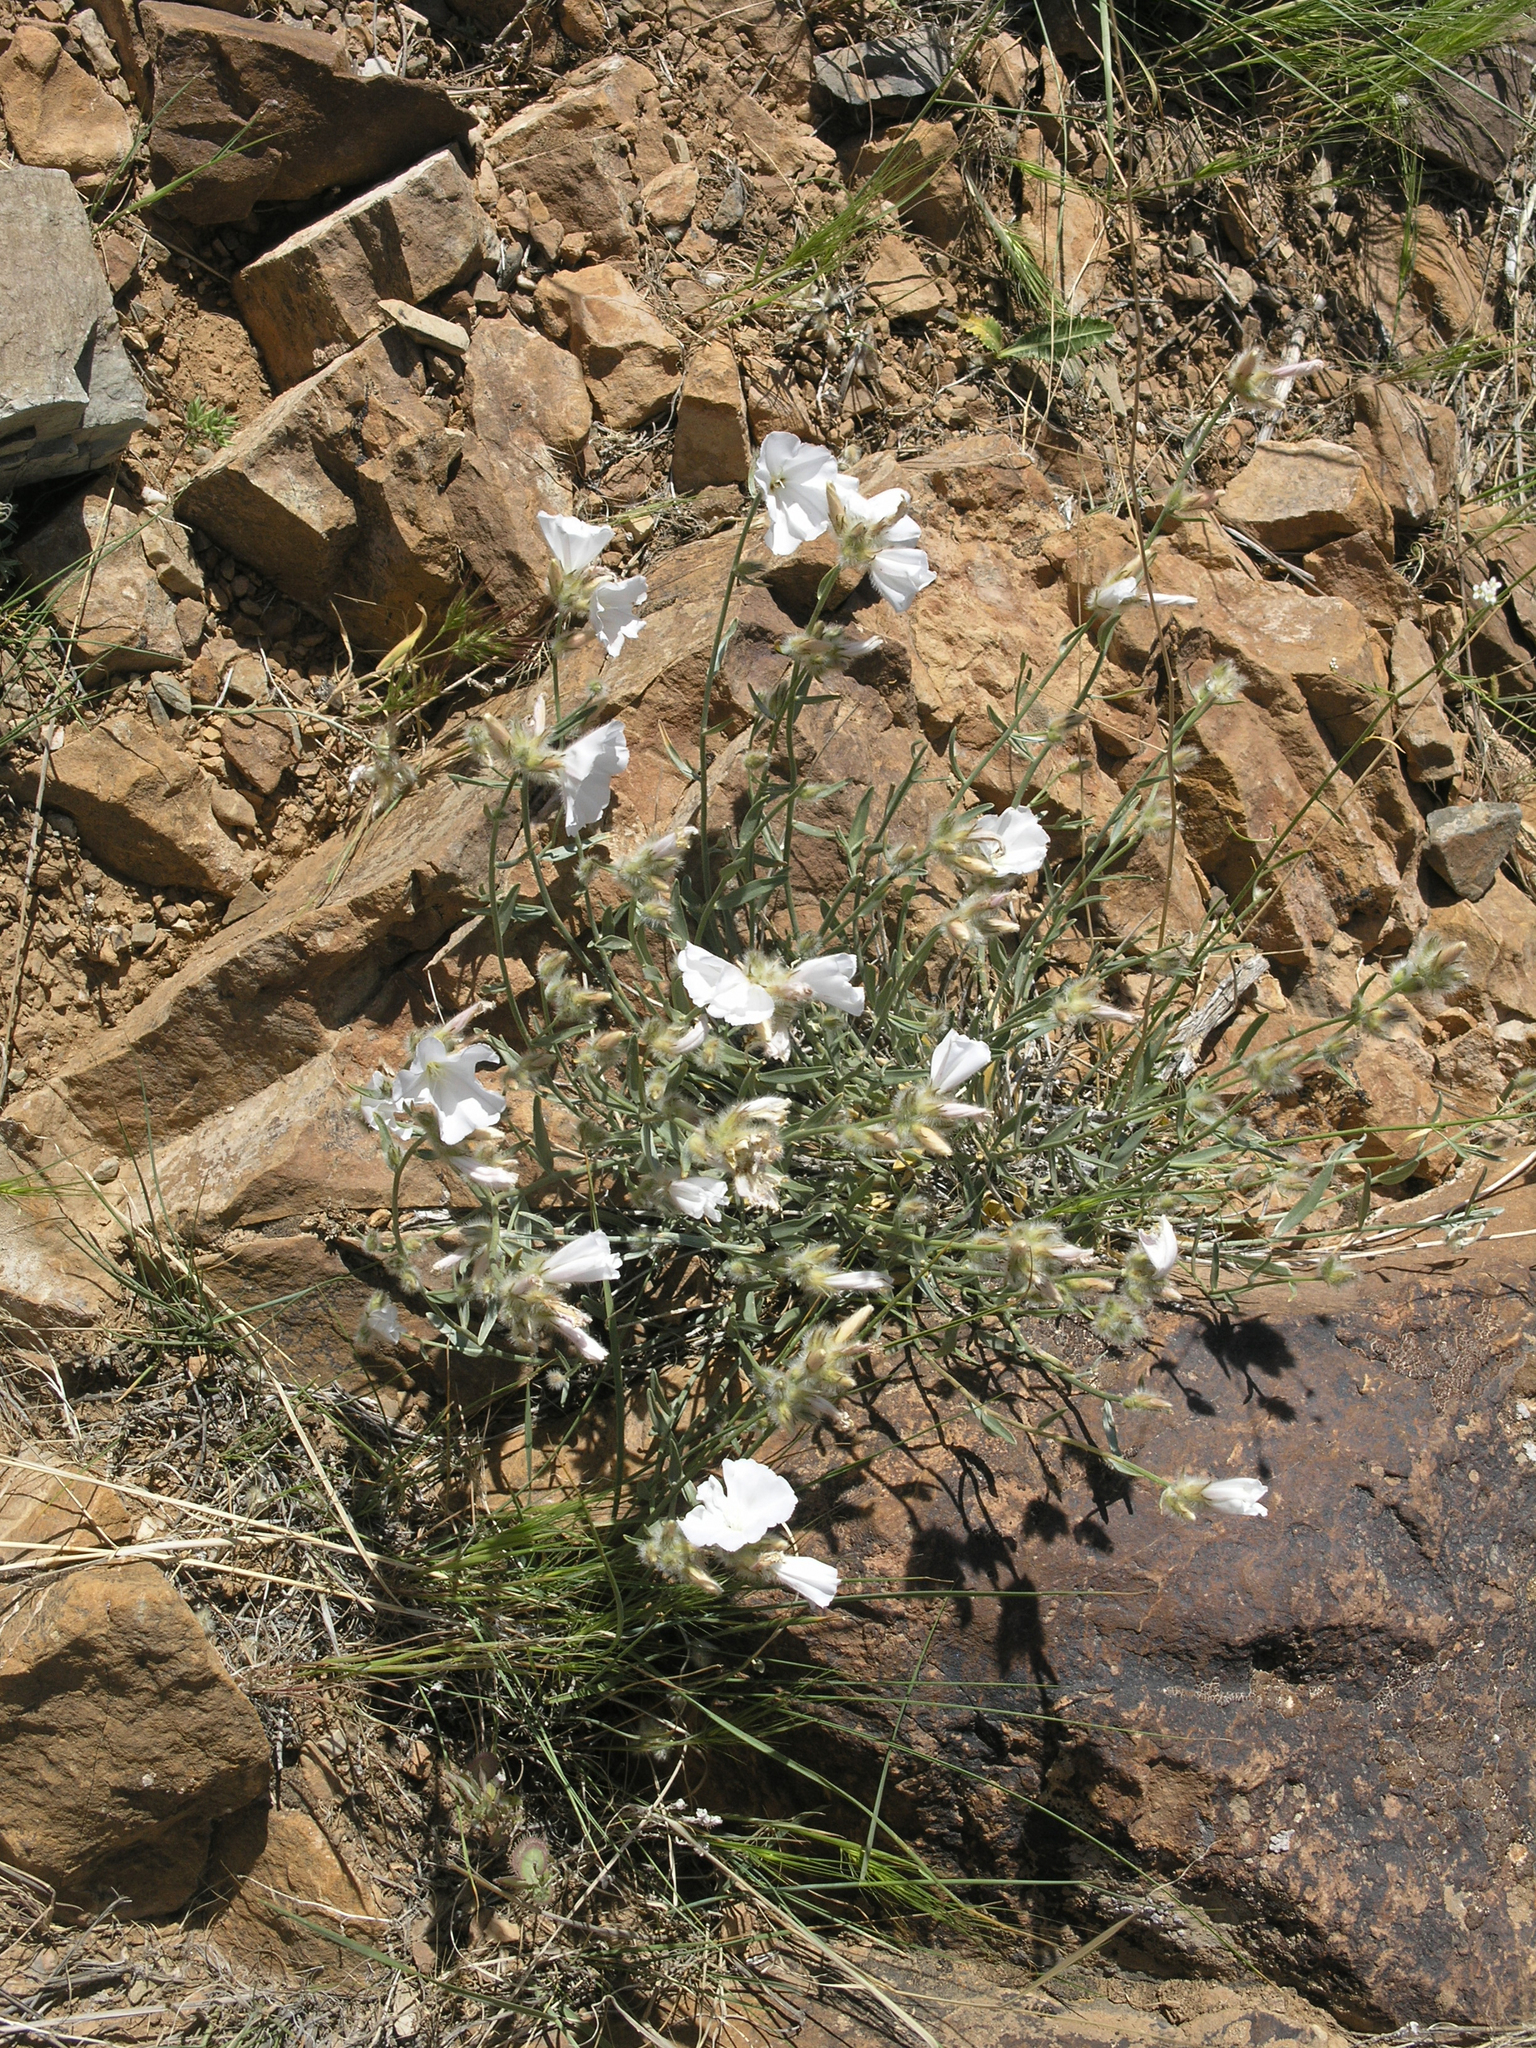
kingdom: Plantae
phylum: Tracheophyta
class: Magnoliopsida
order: Solanales
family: Convolvulaceae
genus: Convolvulus
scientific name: Convolvulus commutatus
